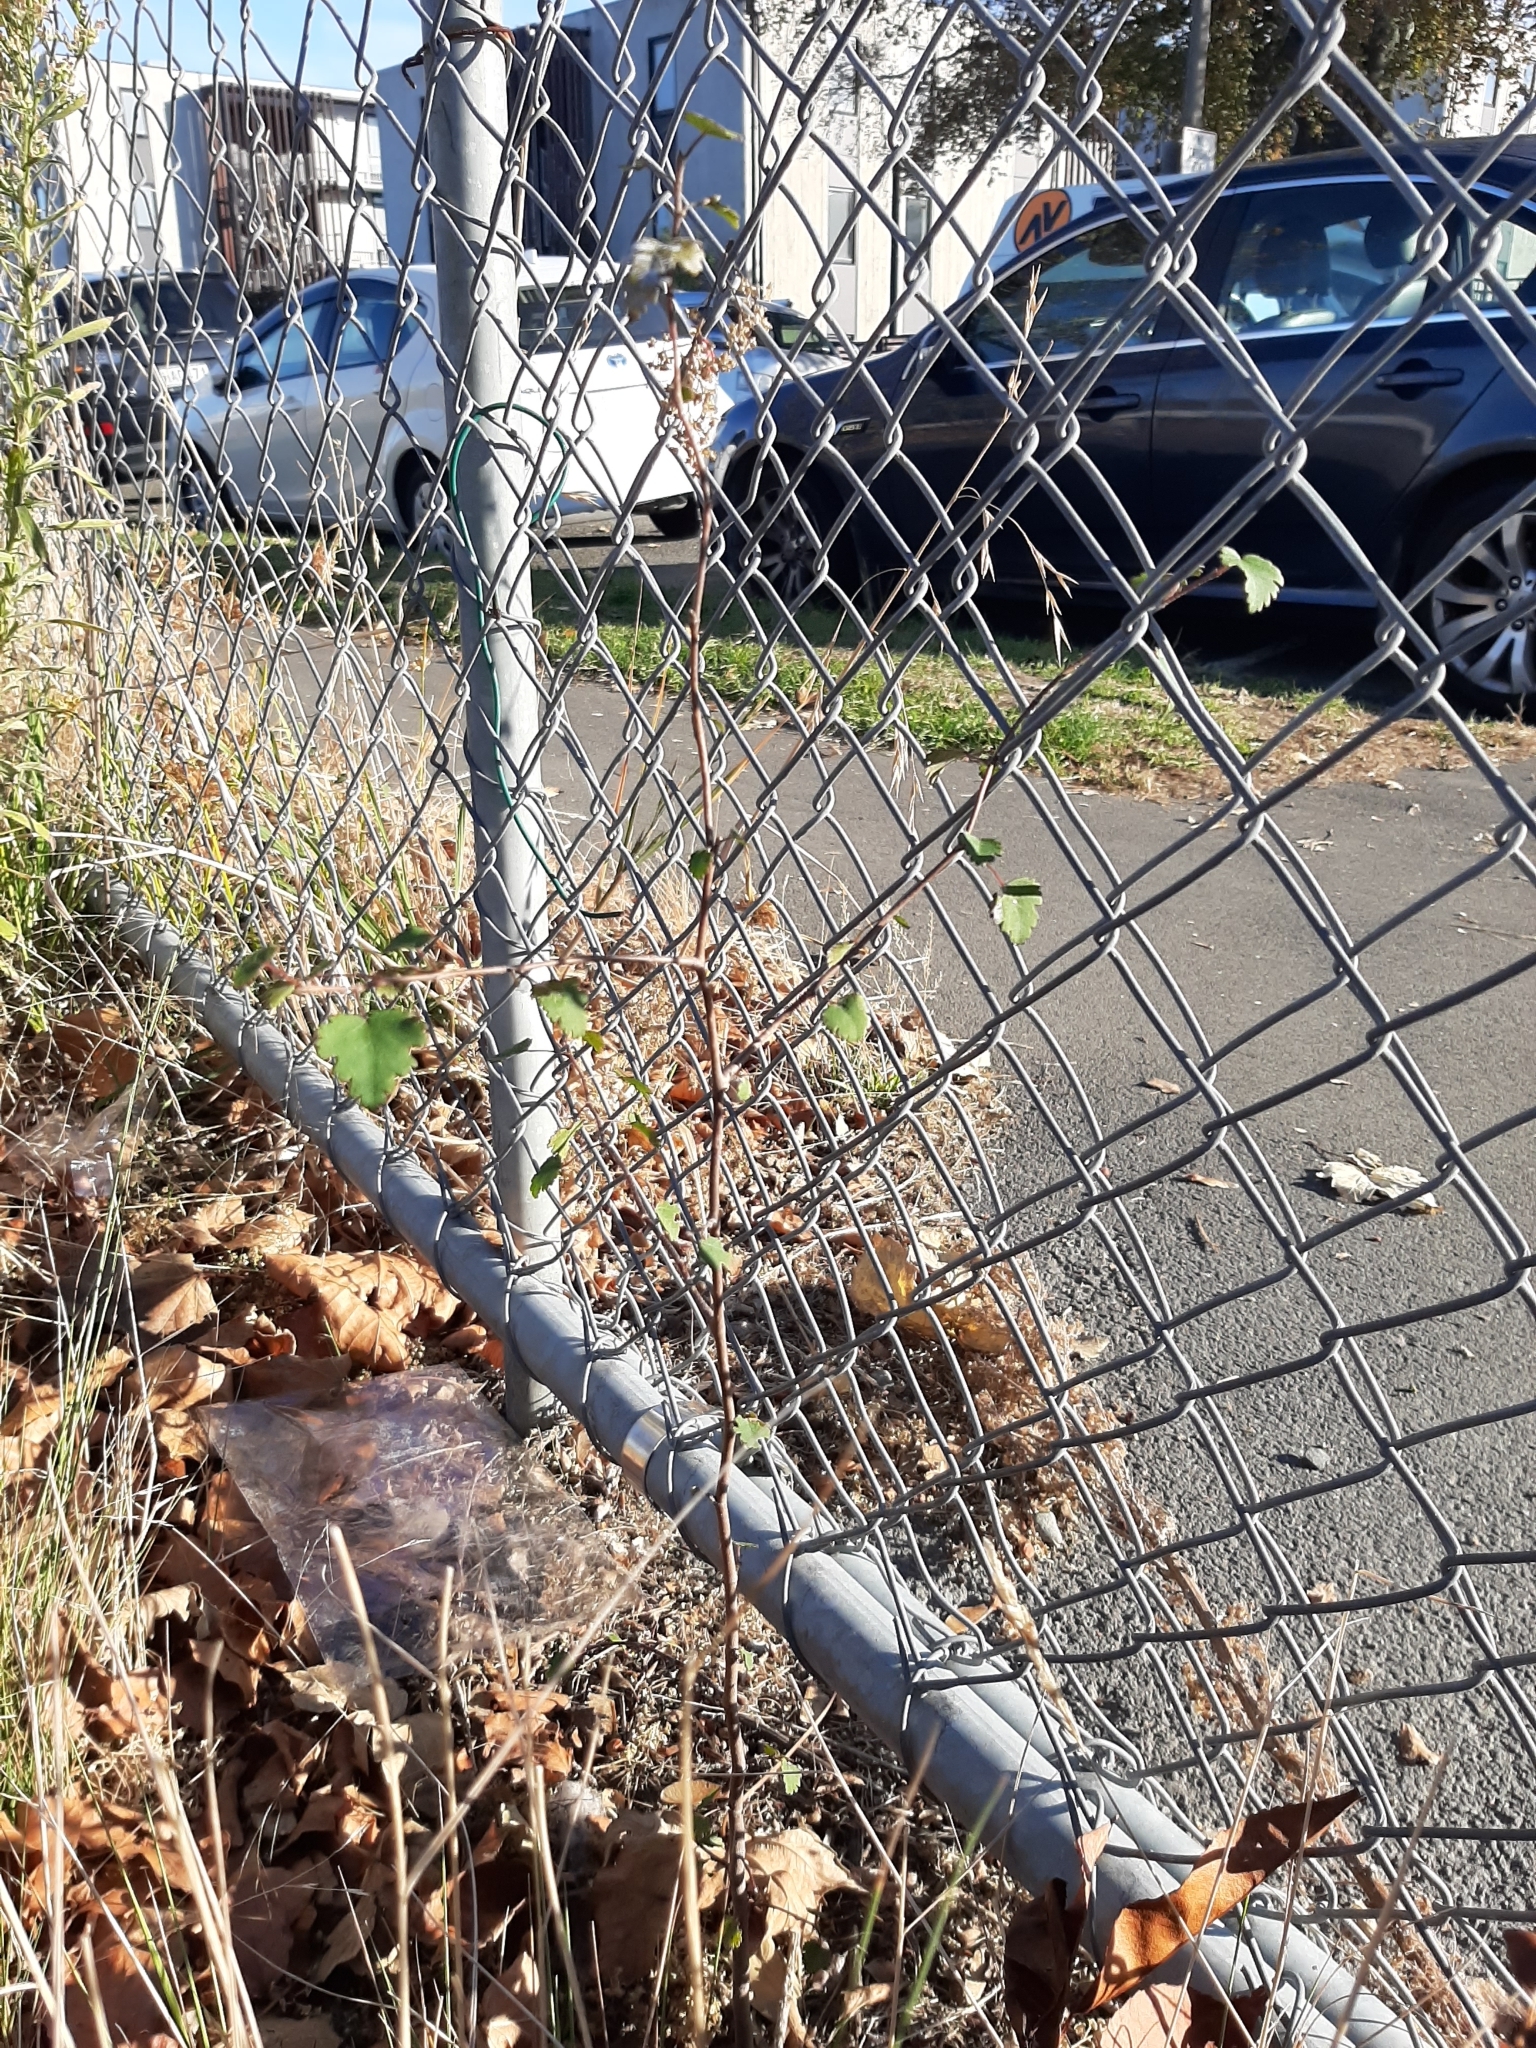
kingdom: Plantae
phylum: Tracheophyta
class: Magnoliopsida
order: Malvales
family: Malvaceae
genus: Plagianthus
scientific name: Plagianthus regius
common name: Manatu
